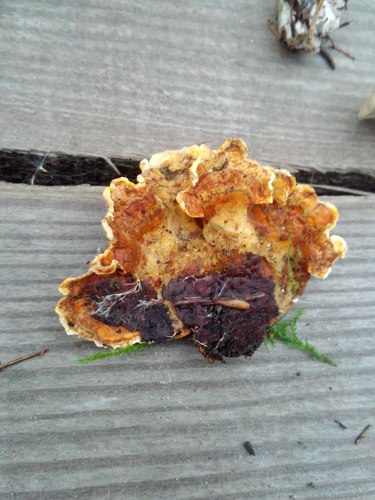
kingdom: Fungi
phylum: Basidiomycota
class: Agaricomycetes
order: Russulales
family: Stereaceae
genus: Stereum
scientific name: Stereum hirsutum
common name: Hairy curtain crust
